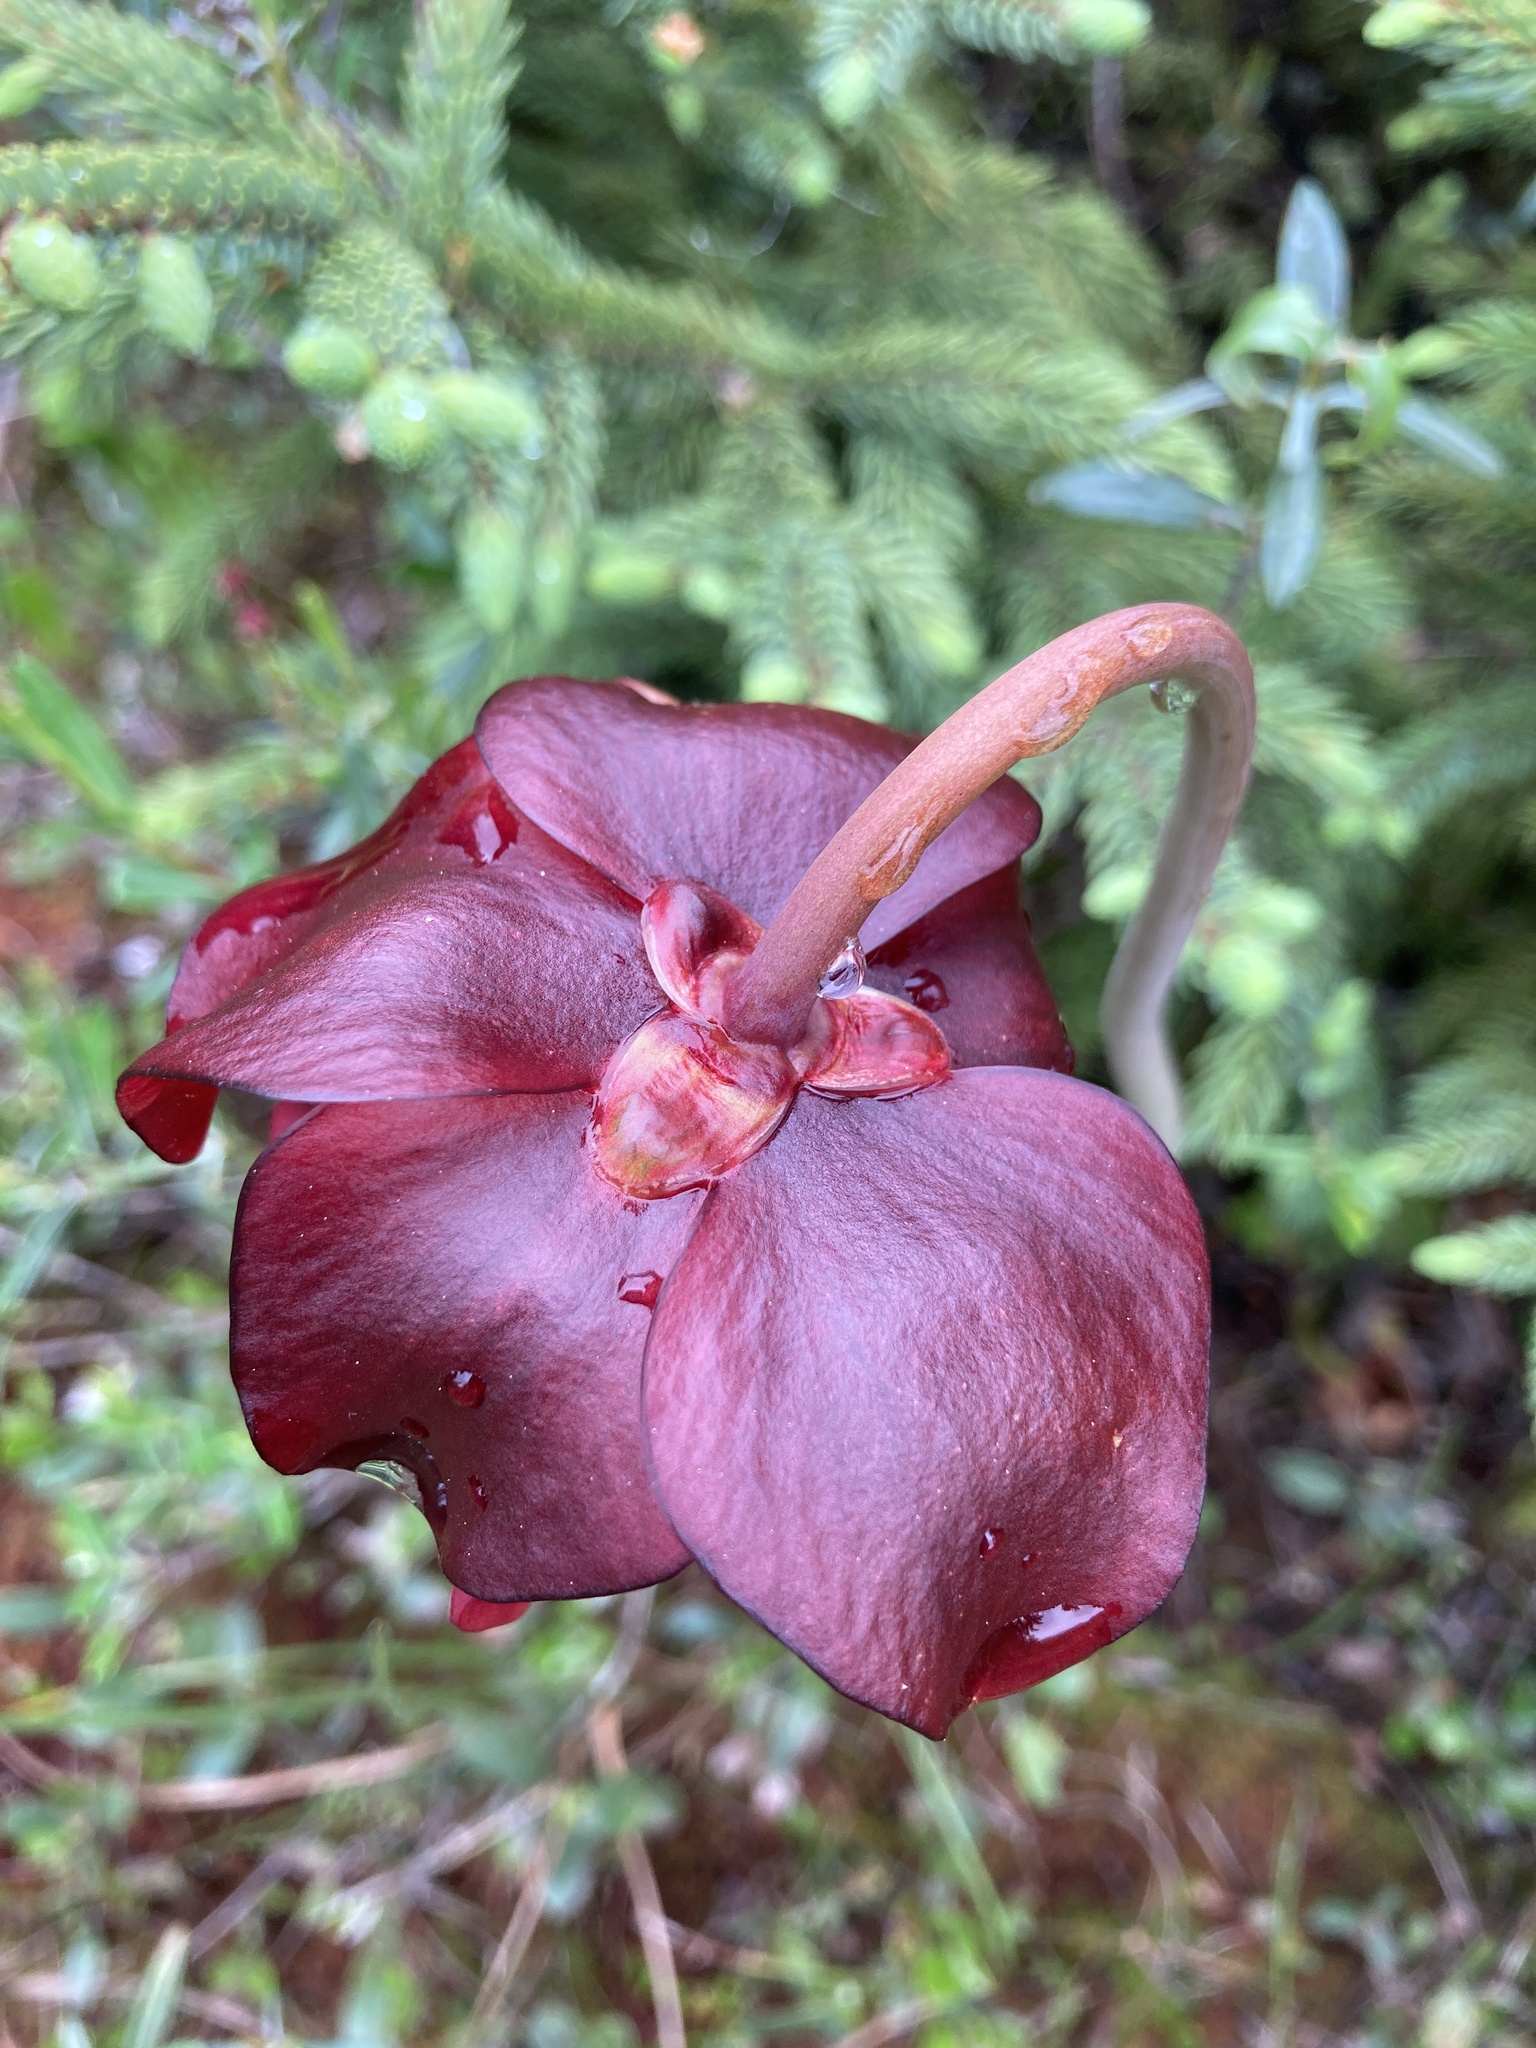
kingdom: Plantae
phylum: Tracheophyta
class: Magnoliopsida
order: Ericales
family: Sarraceniaceae
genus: Sarracenia
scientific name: Sarracenia purpurea
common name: Pitcherplant
